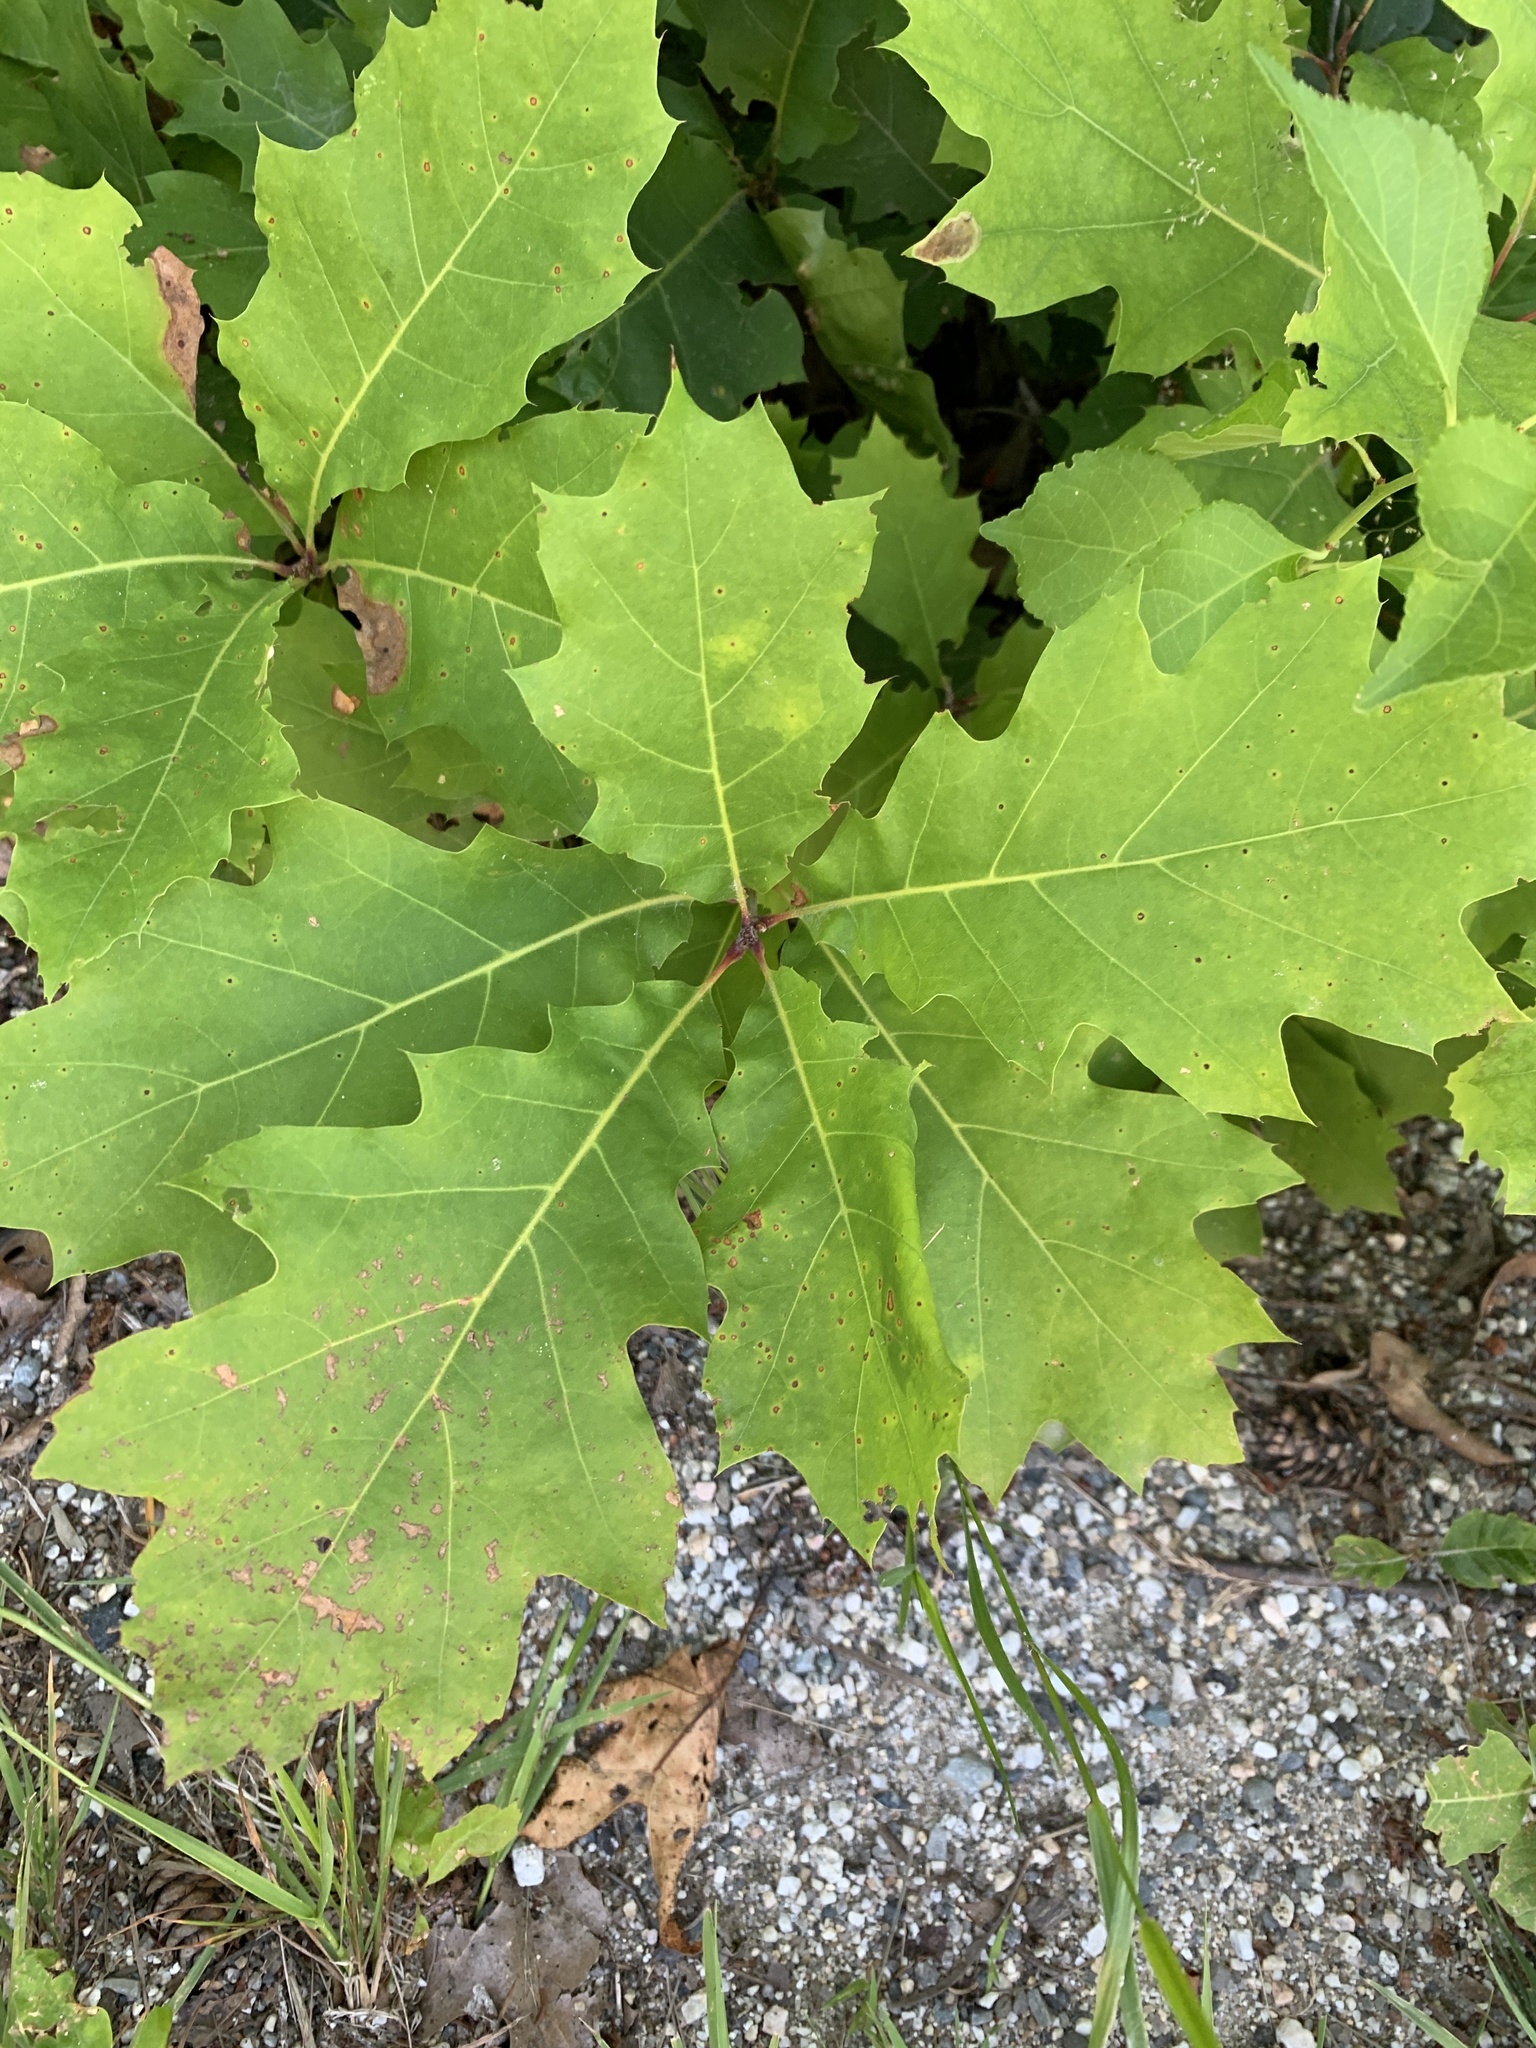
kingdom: Plantae
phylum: Tracheophyta
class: Magnoliopsida
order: Fagales
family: Fagaceae
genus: Quercus
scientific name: Quercus velutina
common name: Black oak
